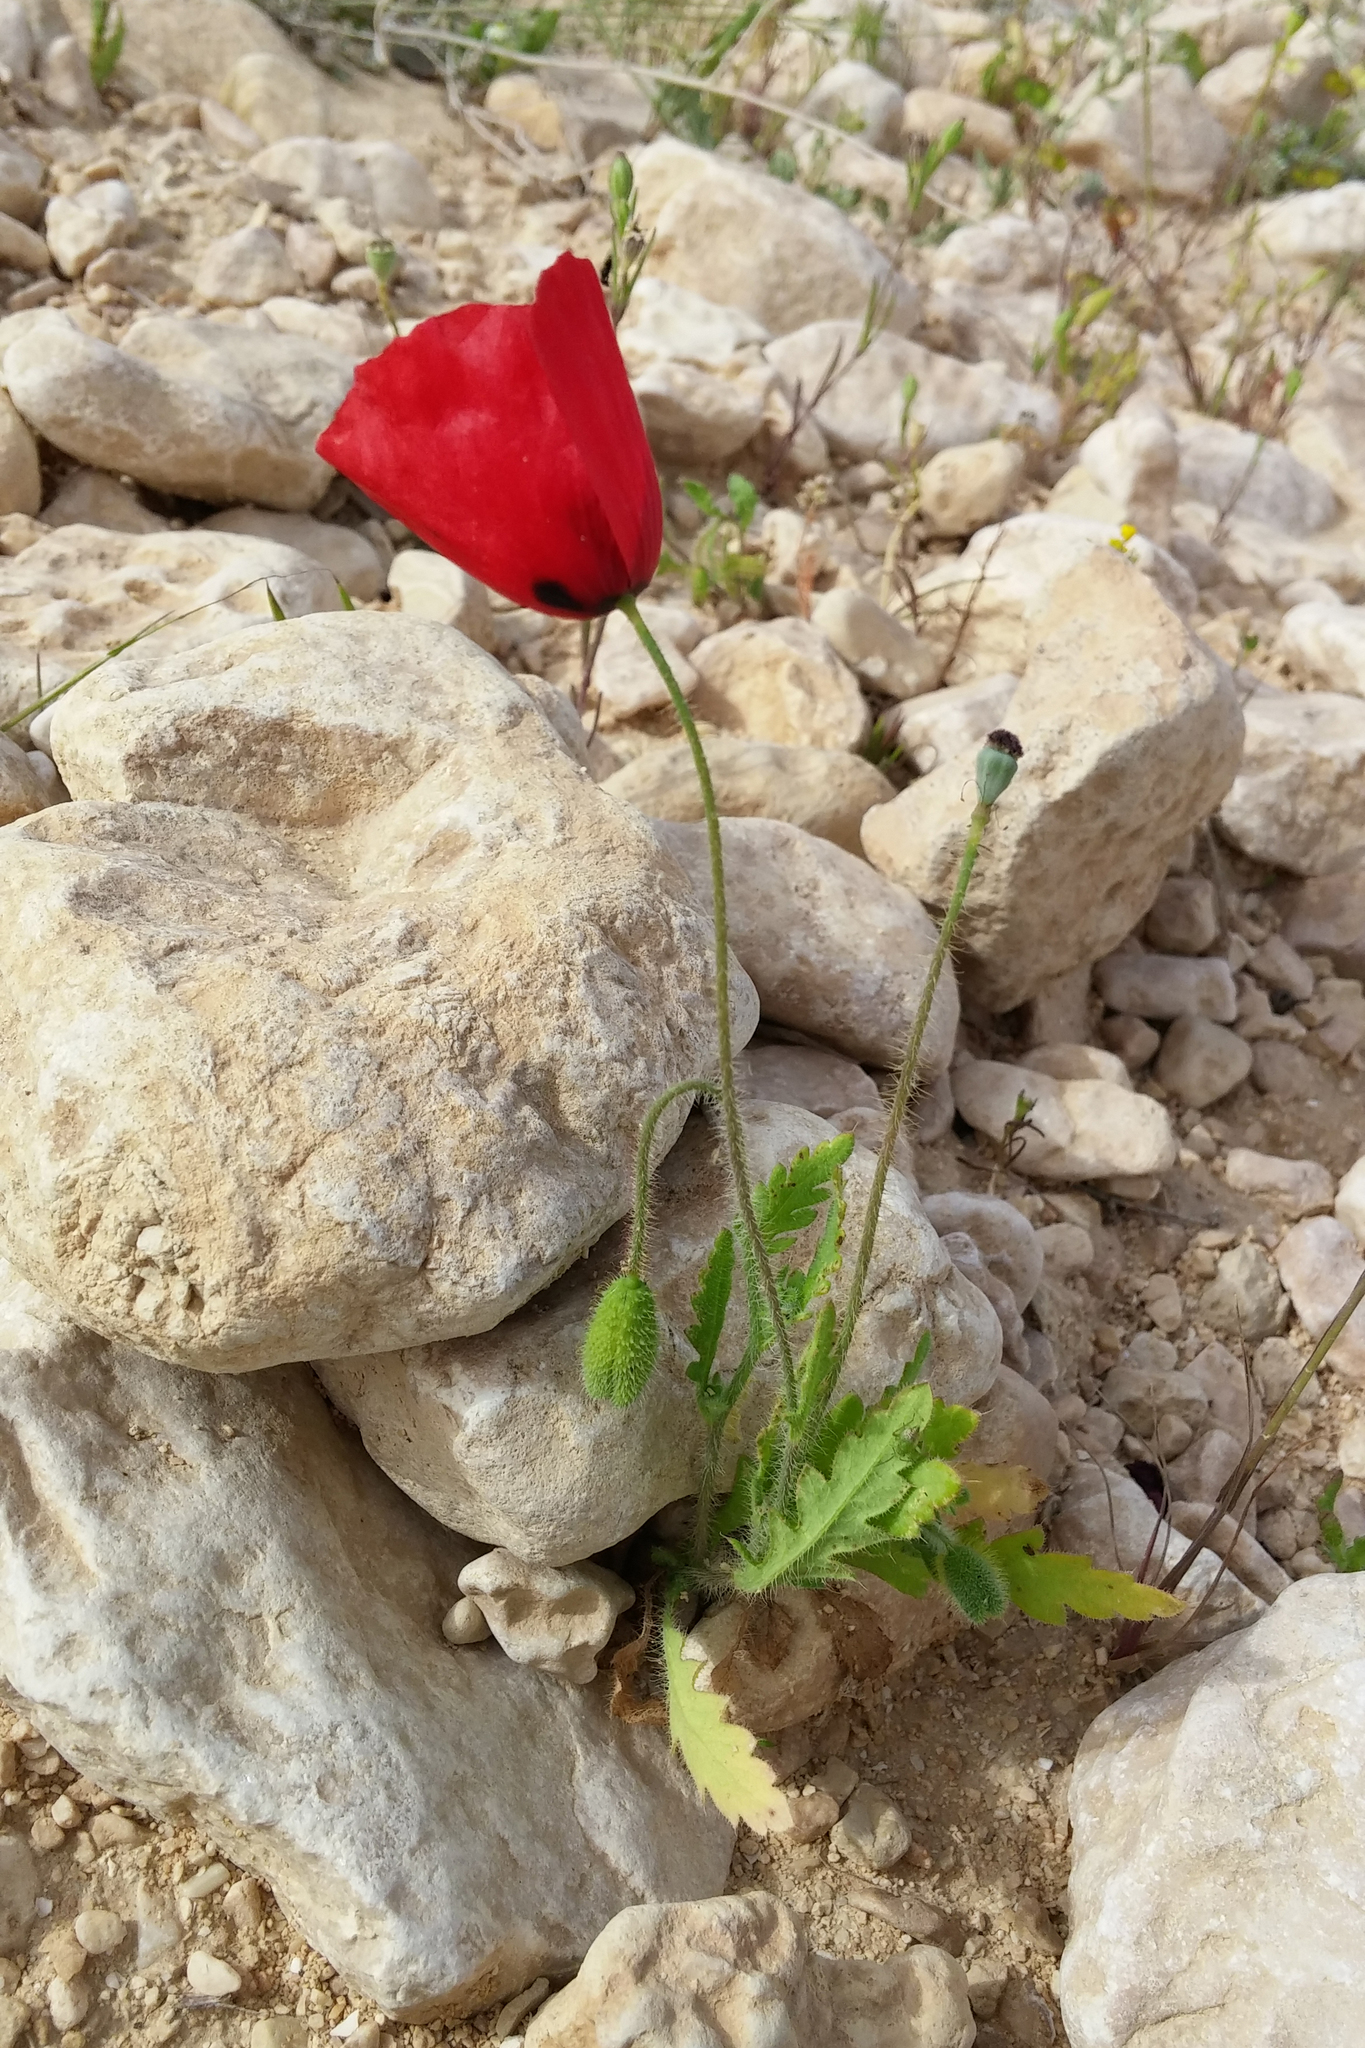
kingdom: Plantae
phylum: Tracheophyta
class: Magnoliopsida
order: Ranunculales
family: Papaveraceae
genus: Papaver
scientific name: Papaver rhoeas
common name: Corn poppy
